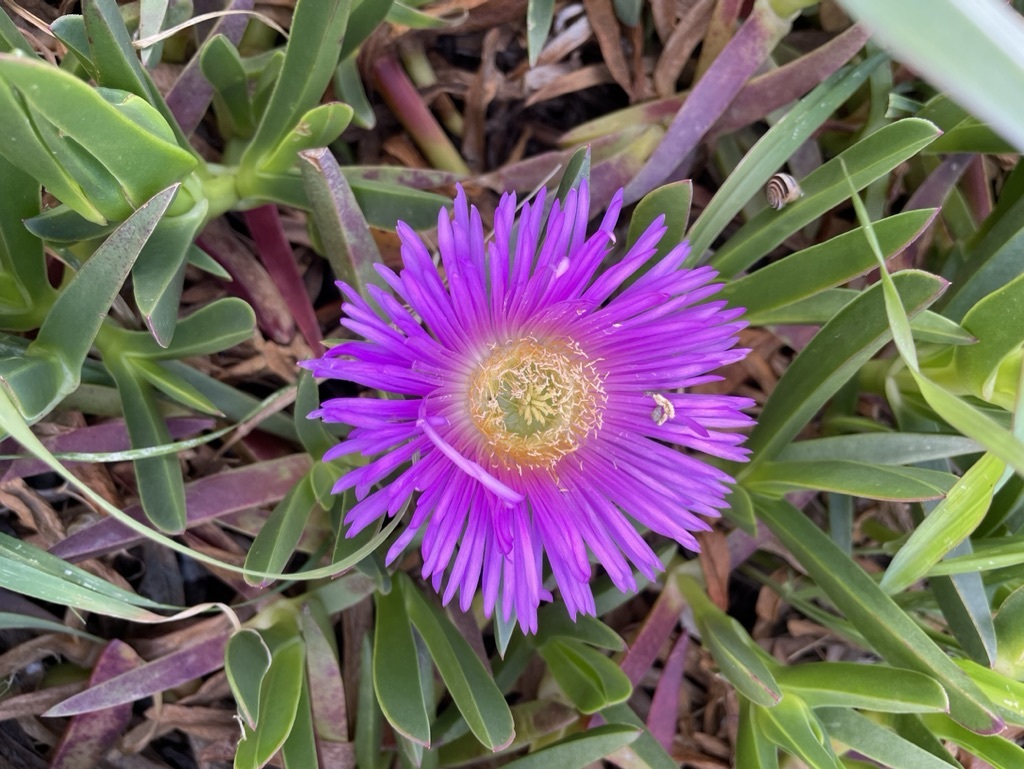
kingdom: Plantae
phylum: Tracheophyta
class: Magnoliopsida
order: Caryophyllales
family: Aizoaceae
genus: Carpobrotus
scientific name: Carpobrotus acinaciformis
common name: Sally-my-handsome
